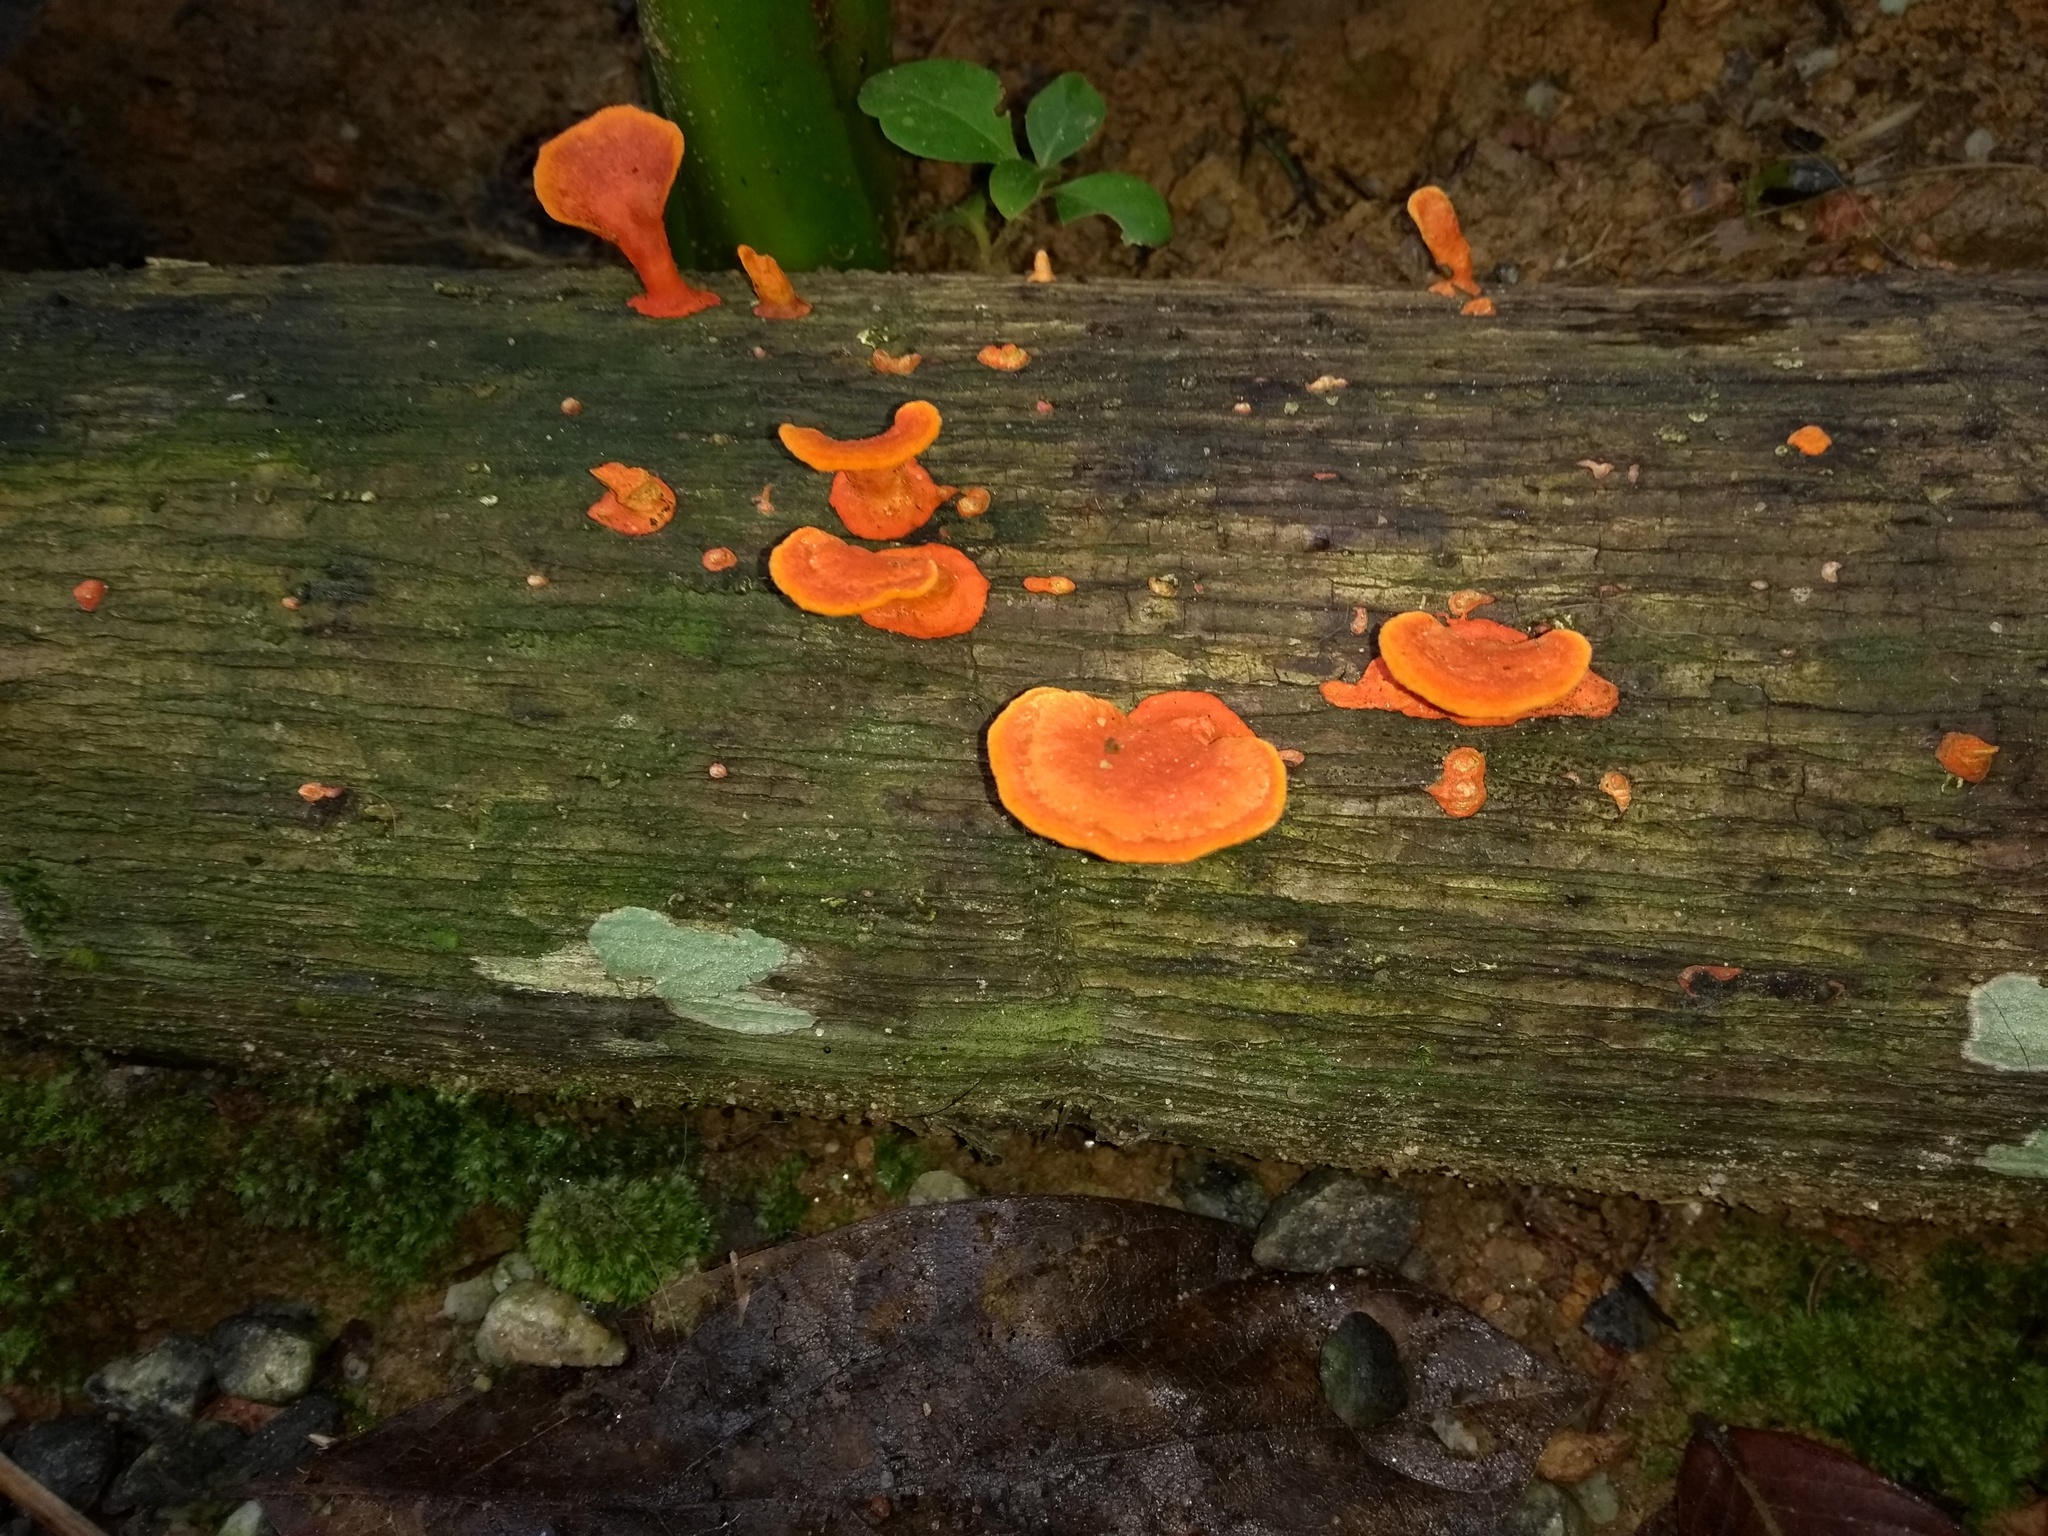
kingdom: Fungi
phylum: Basidiomycota
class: Agaricomycetes
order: Polyporales
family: Polyporaceae
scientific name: Polyporaceae
